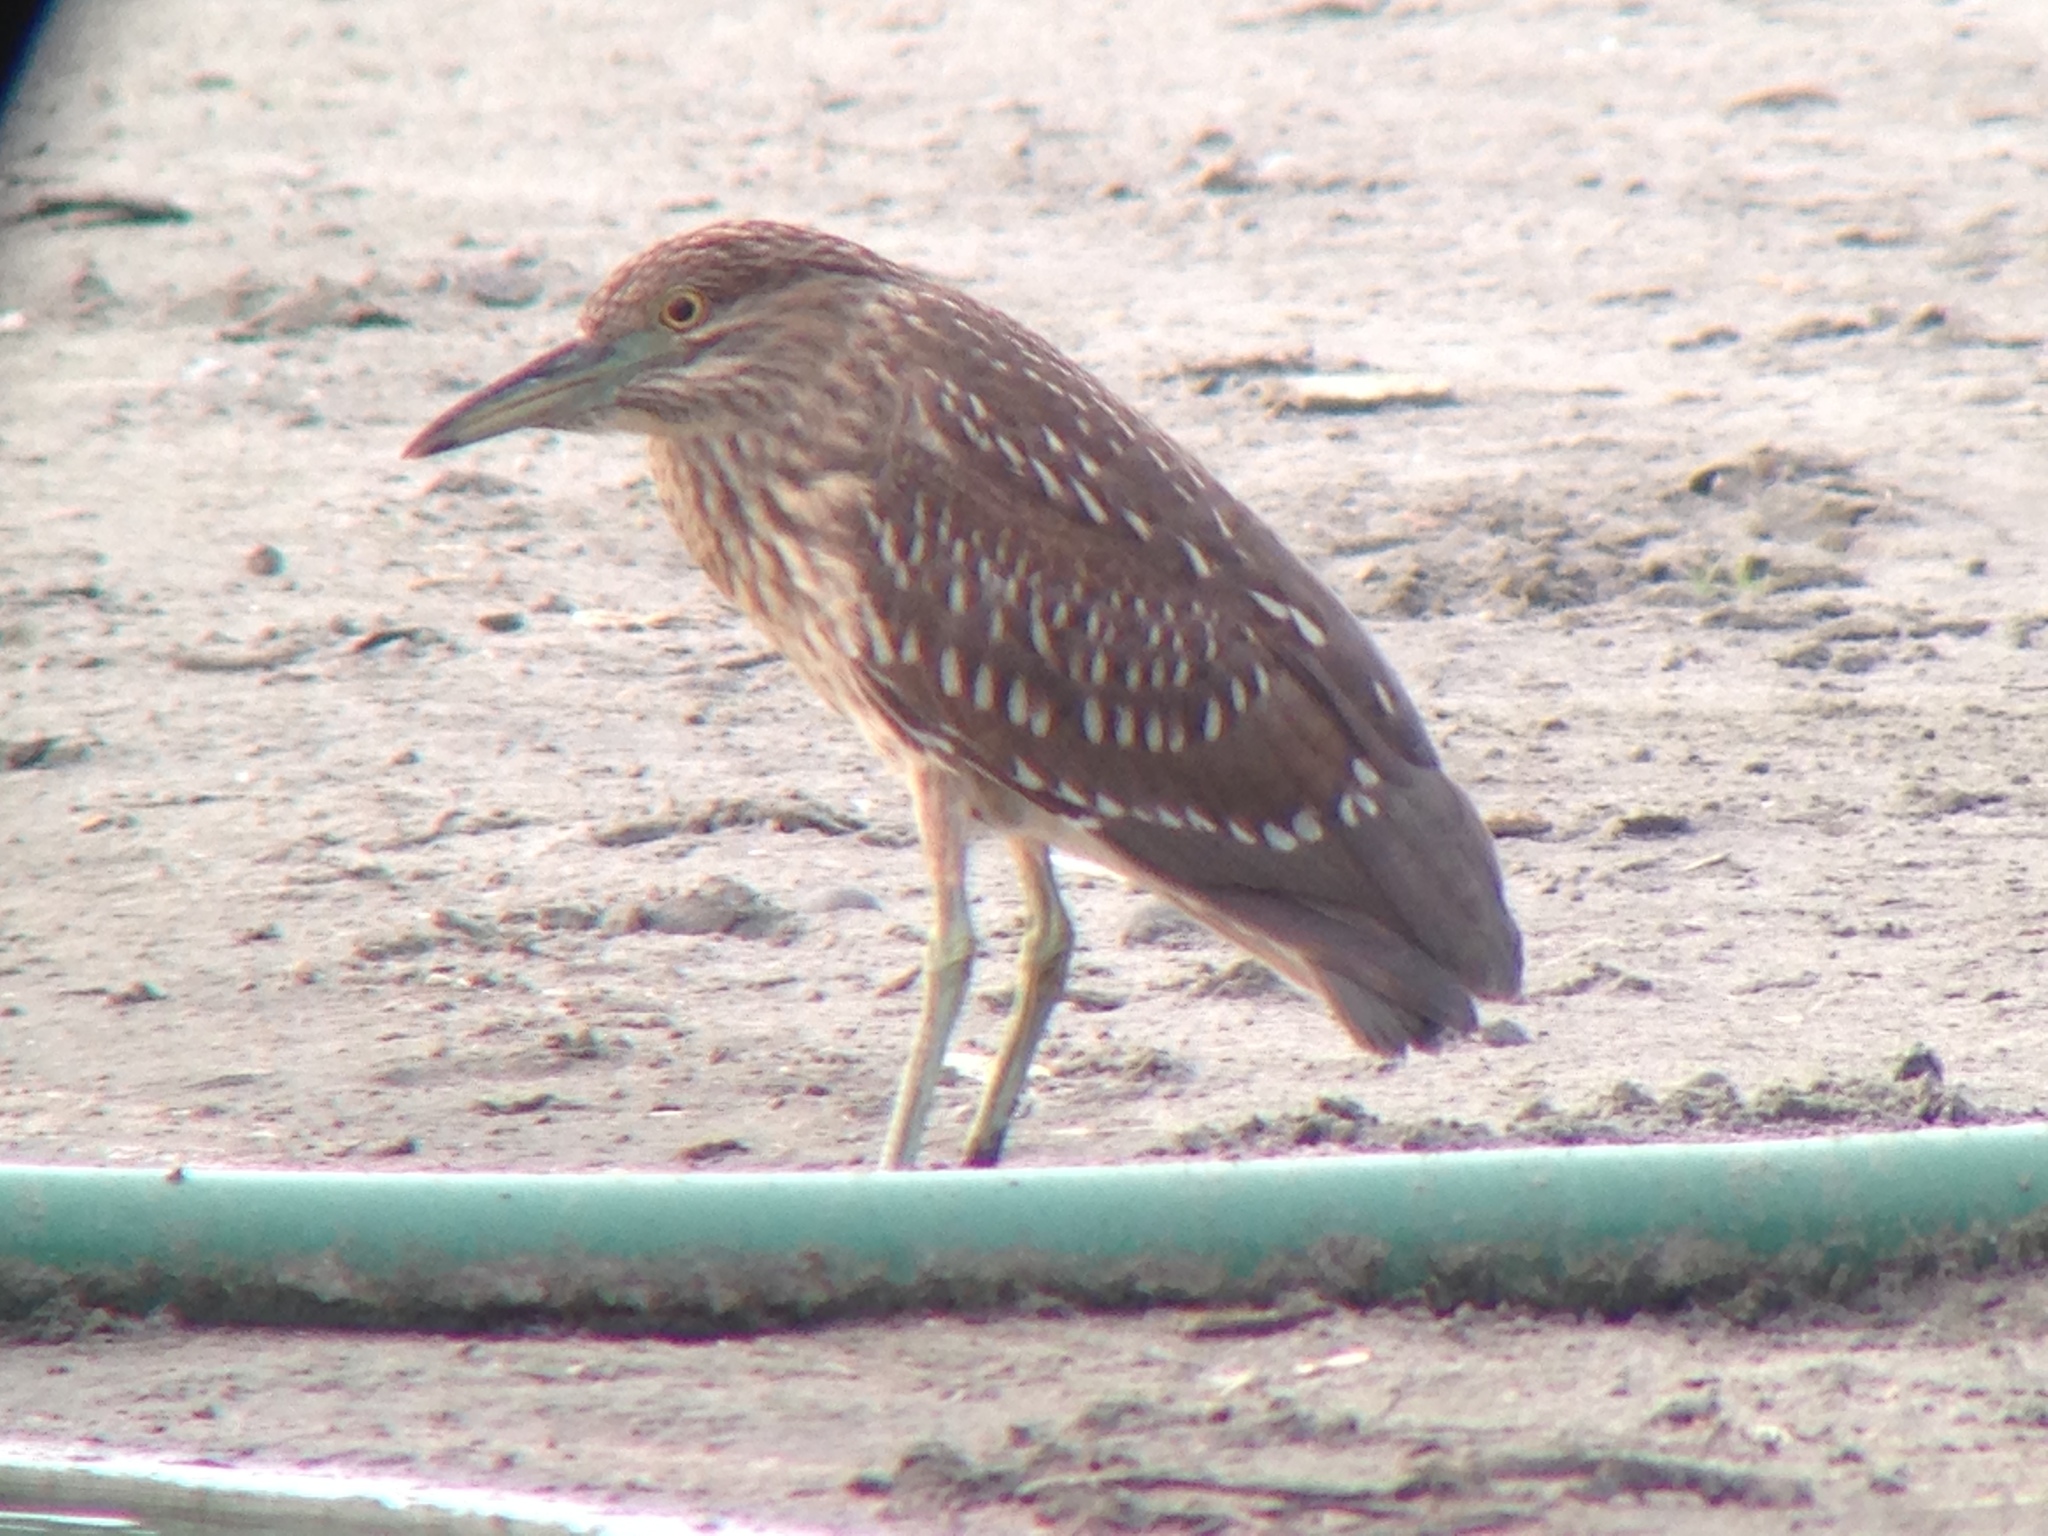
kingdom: Animalia
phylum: Chordata
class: Aves
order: Pelecaniformes
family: Ardeidae
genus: Nycticorax
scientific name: Nycticorax nycticorax
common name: Black-crowned night heron
